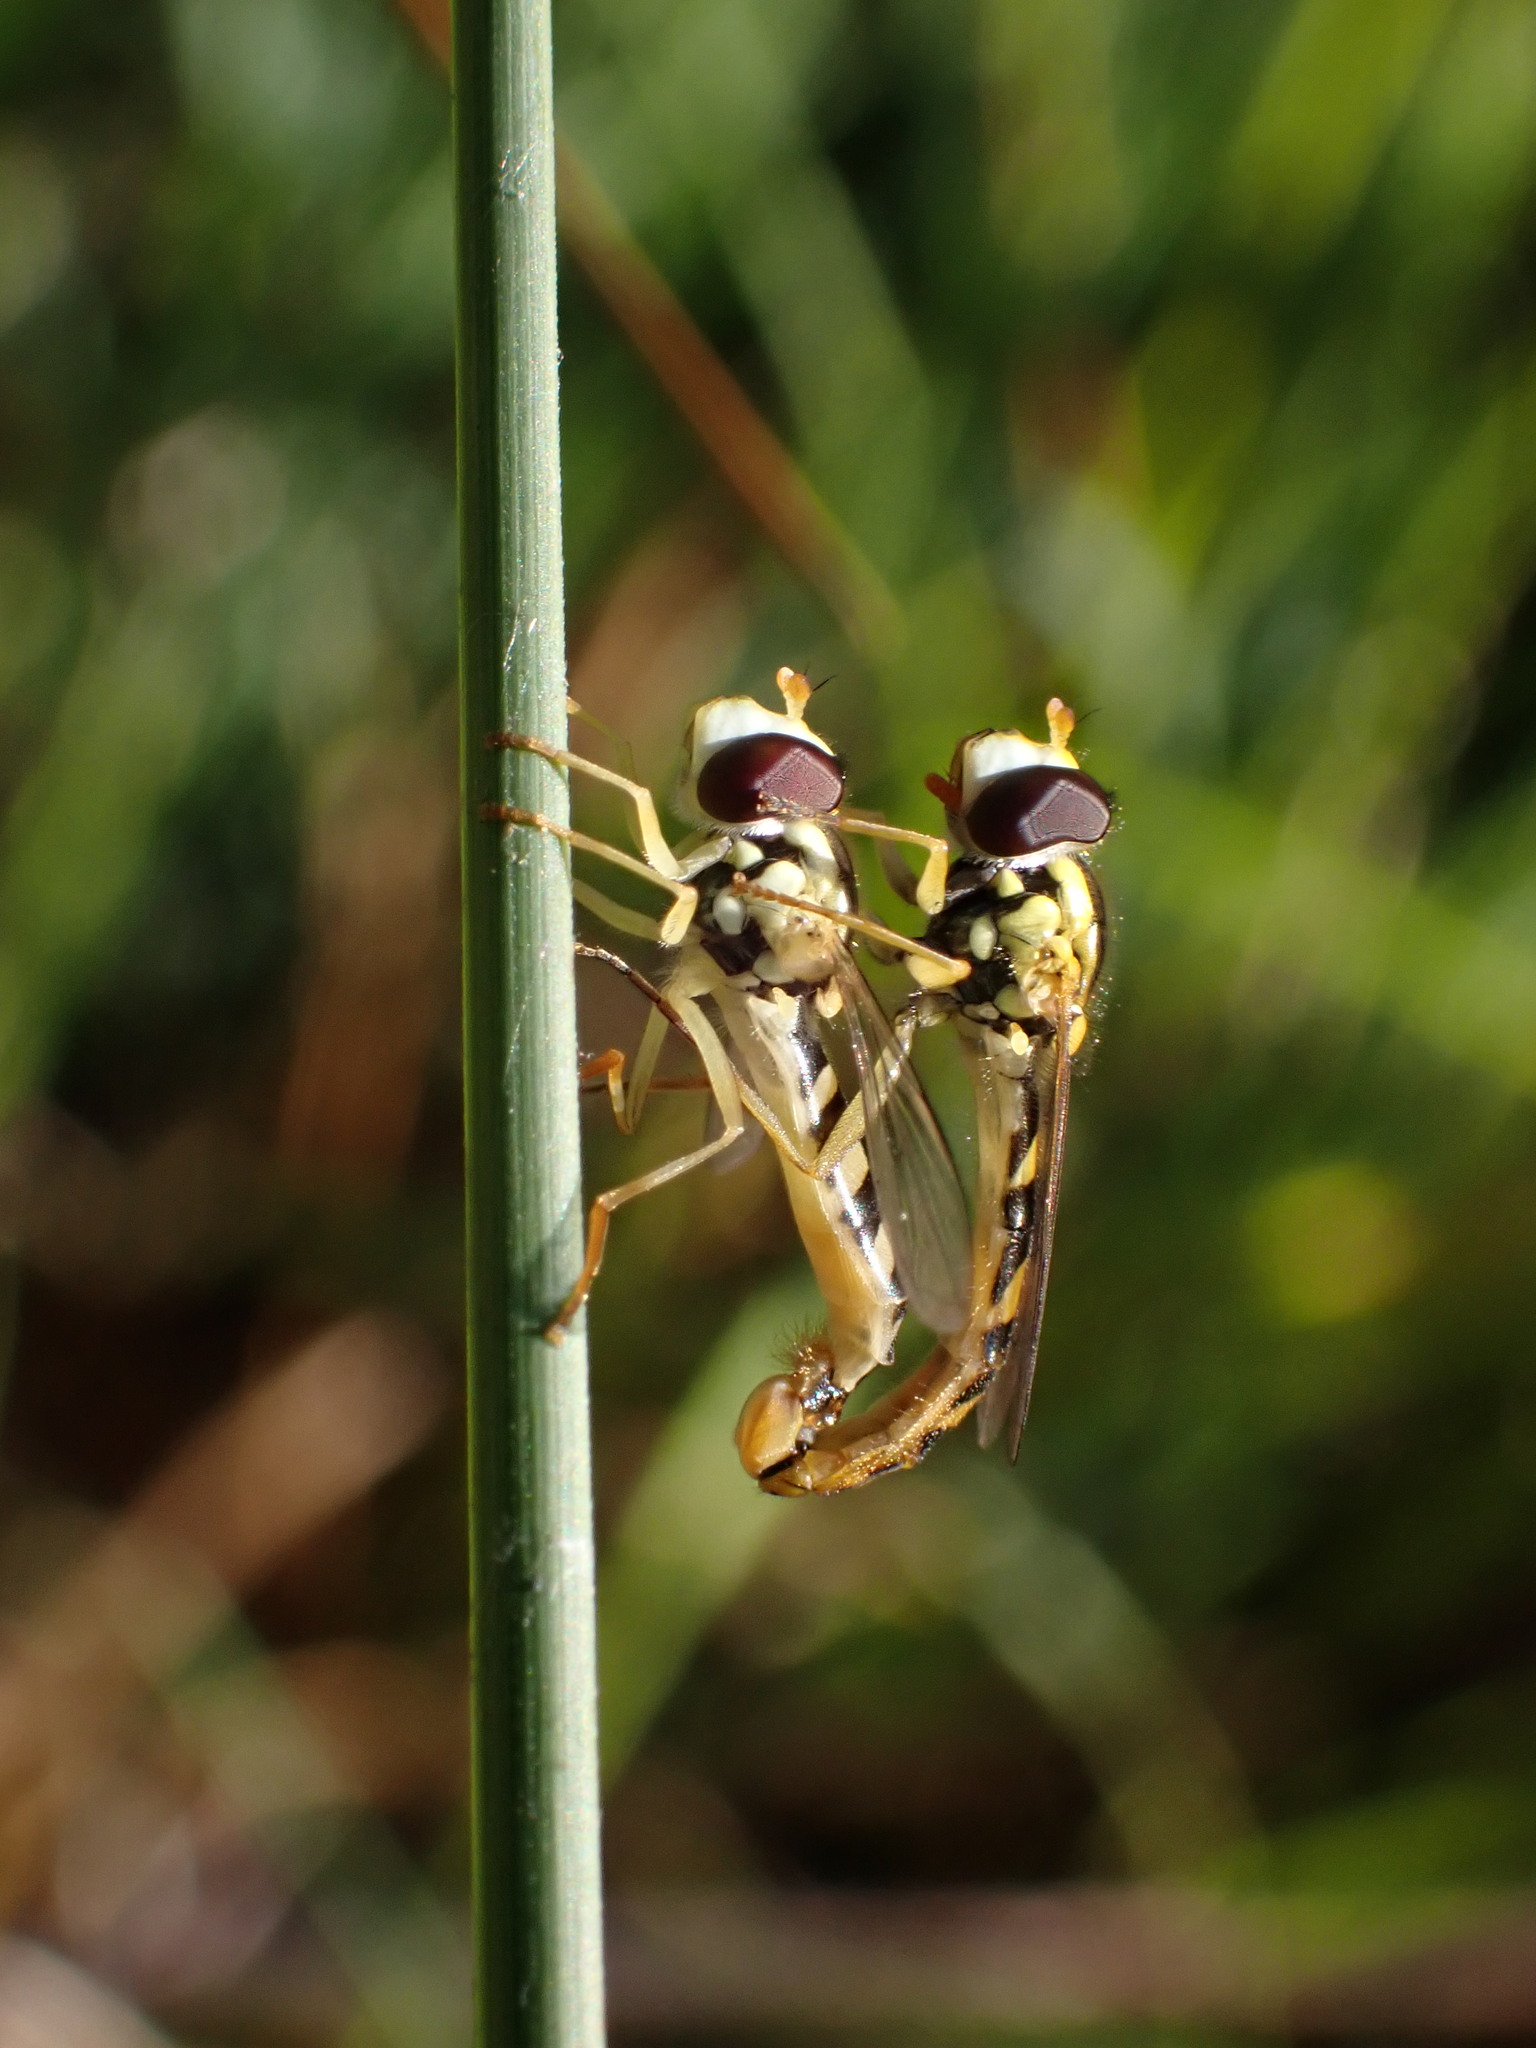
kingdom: Animalia
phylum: Arthropoda
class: Insecta
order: Diptera
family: Syrphidae
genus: Sphaerophoria
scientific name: Sphaerophoria scripta
